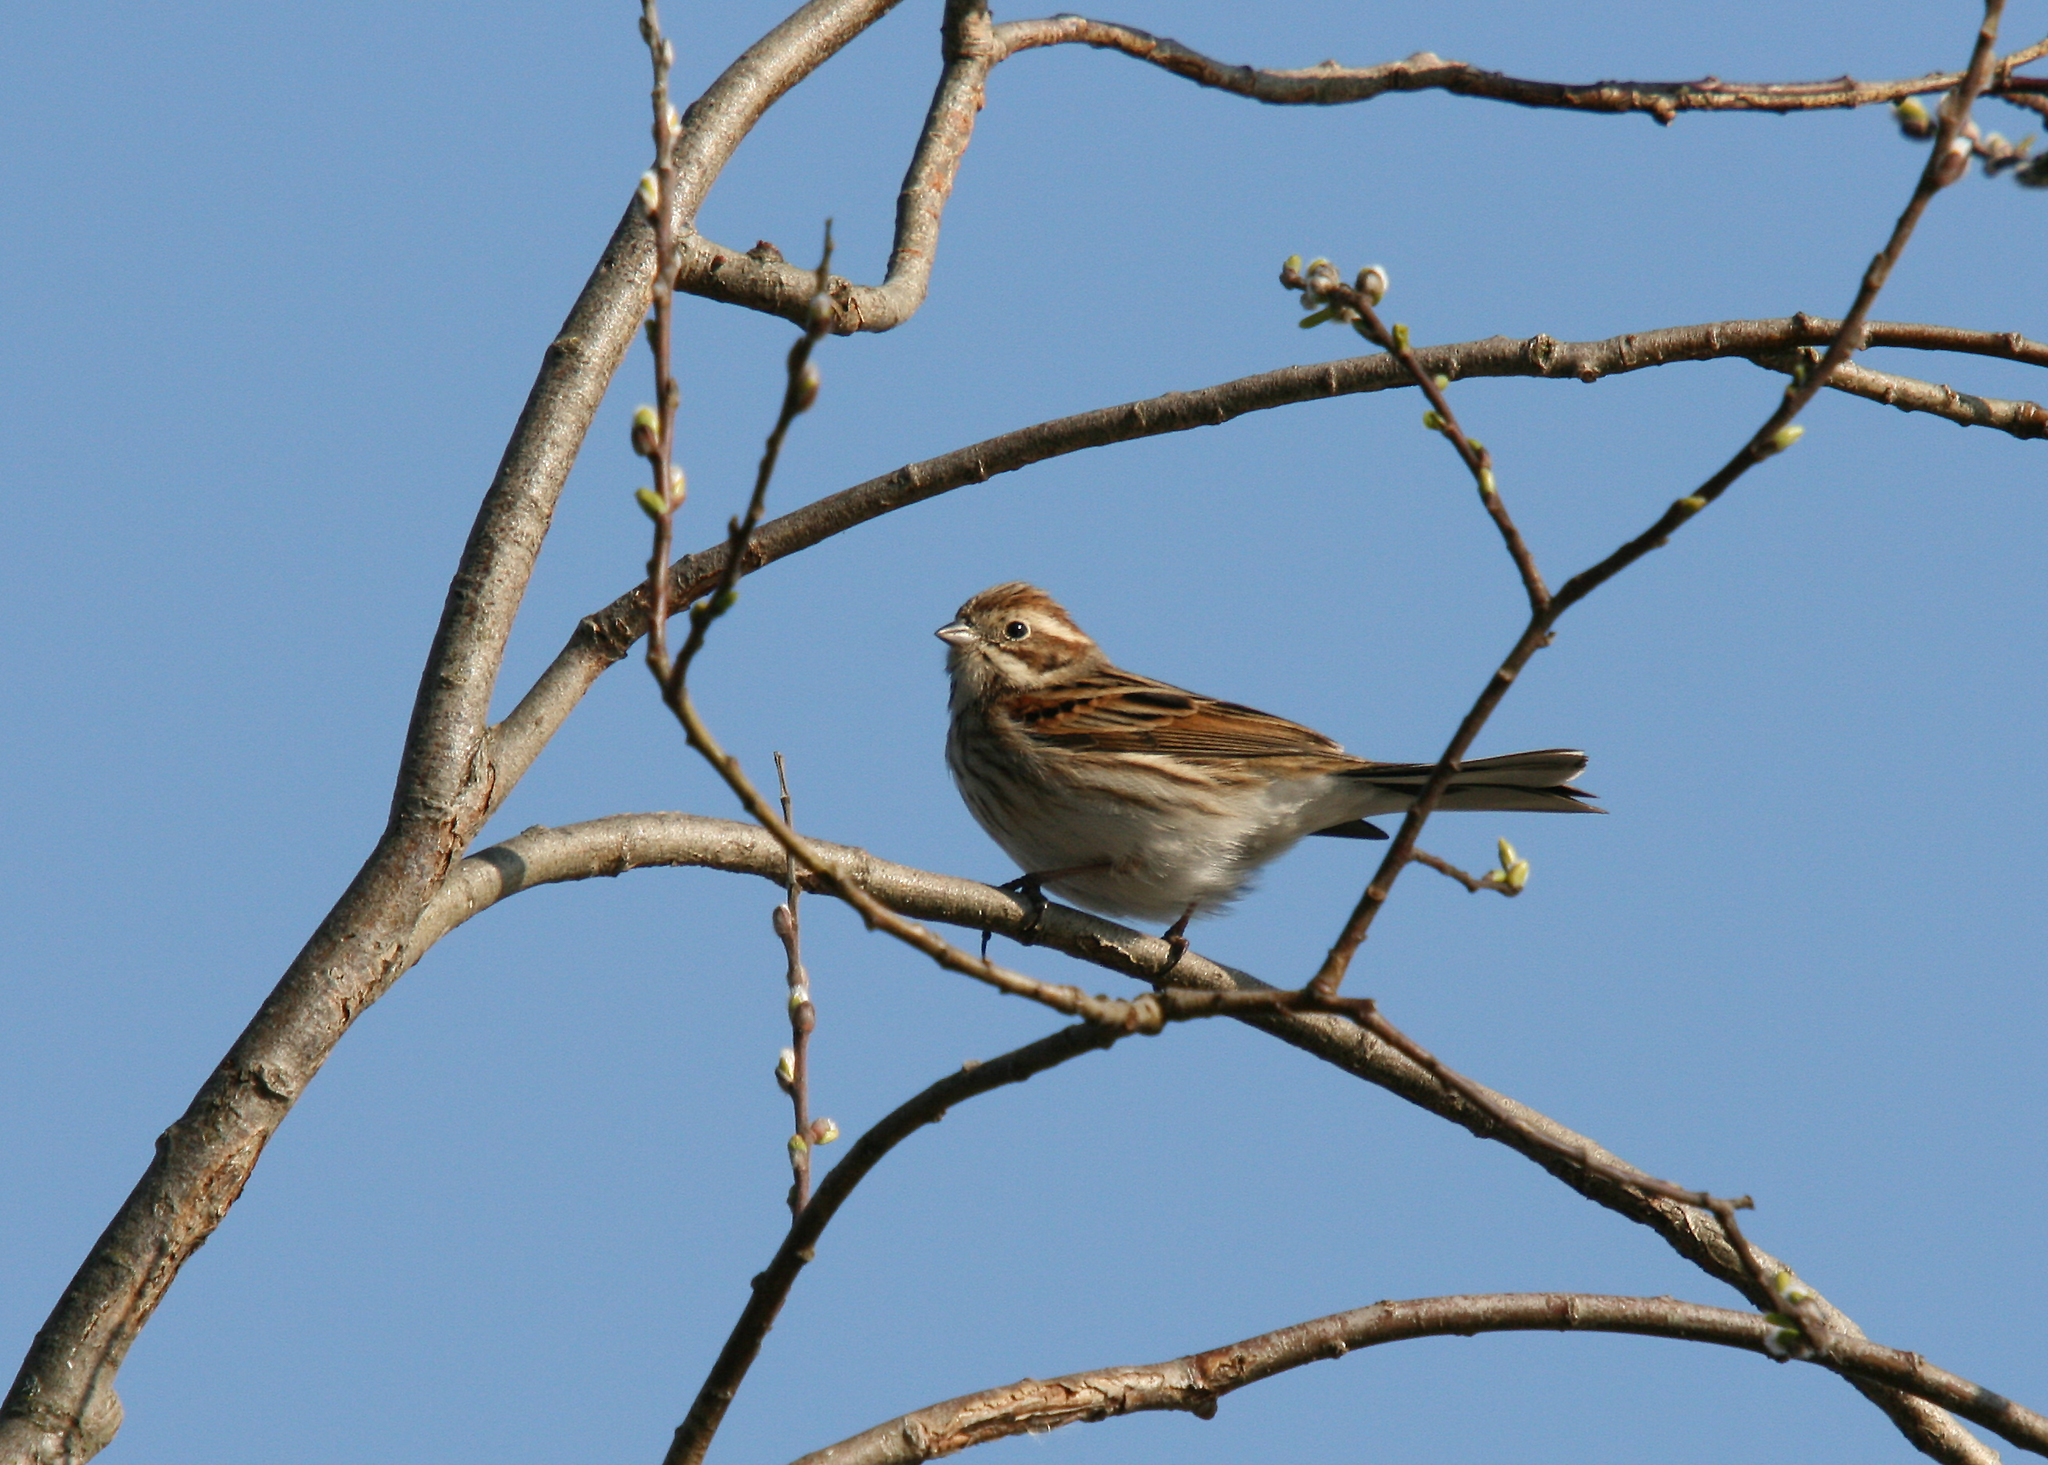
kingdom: Animalia
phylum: Chordata
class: Aves
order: Passeriformes
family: Emberizidae
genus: Emberiza
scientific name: Emberiza schoeniclus
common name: Reed bunting
